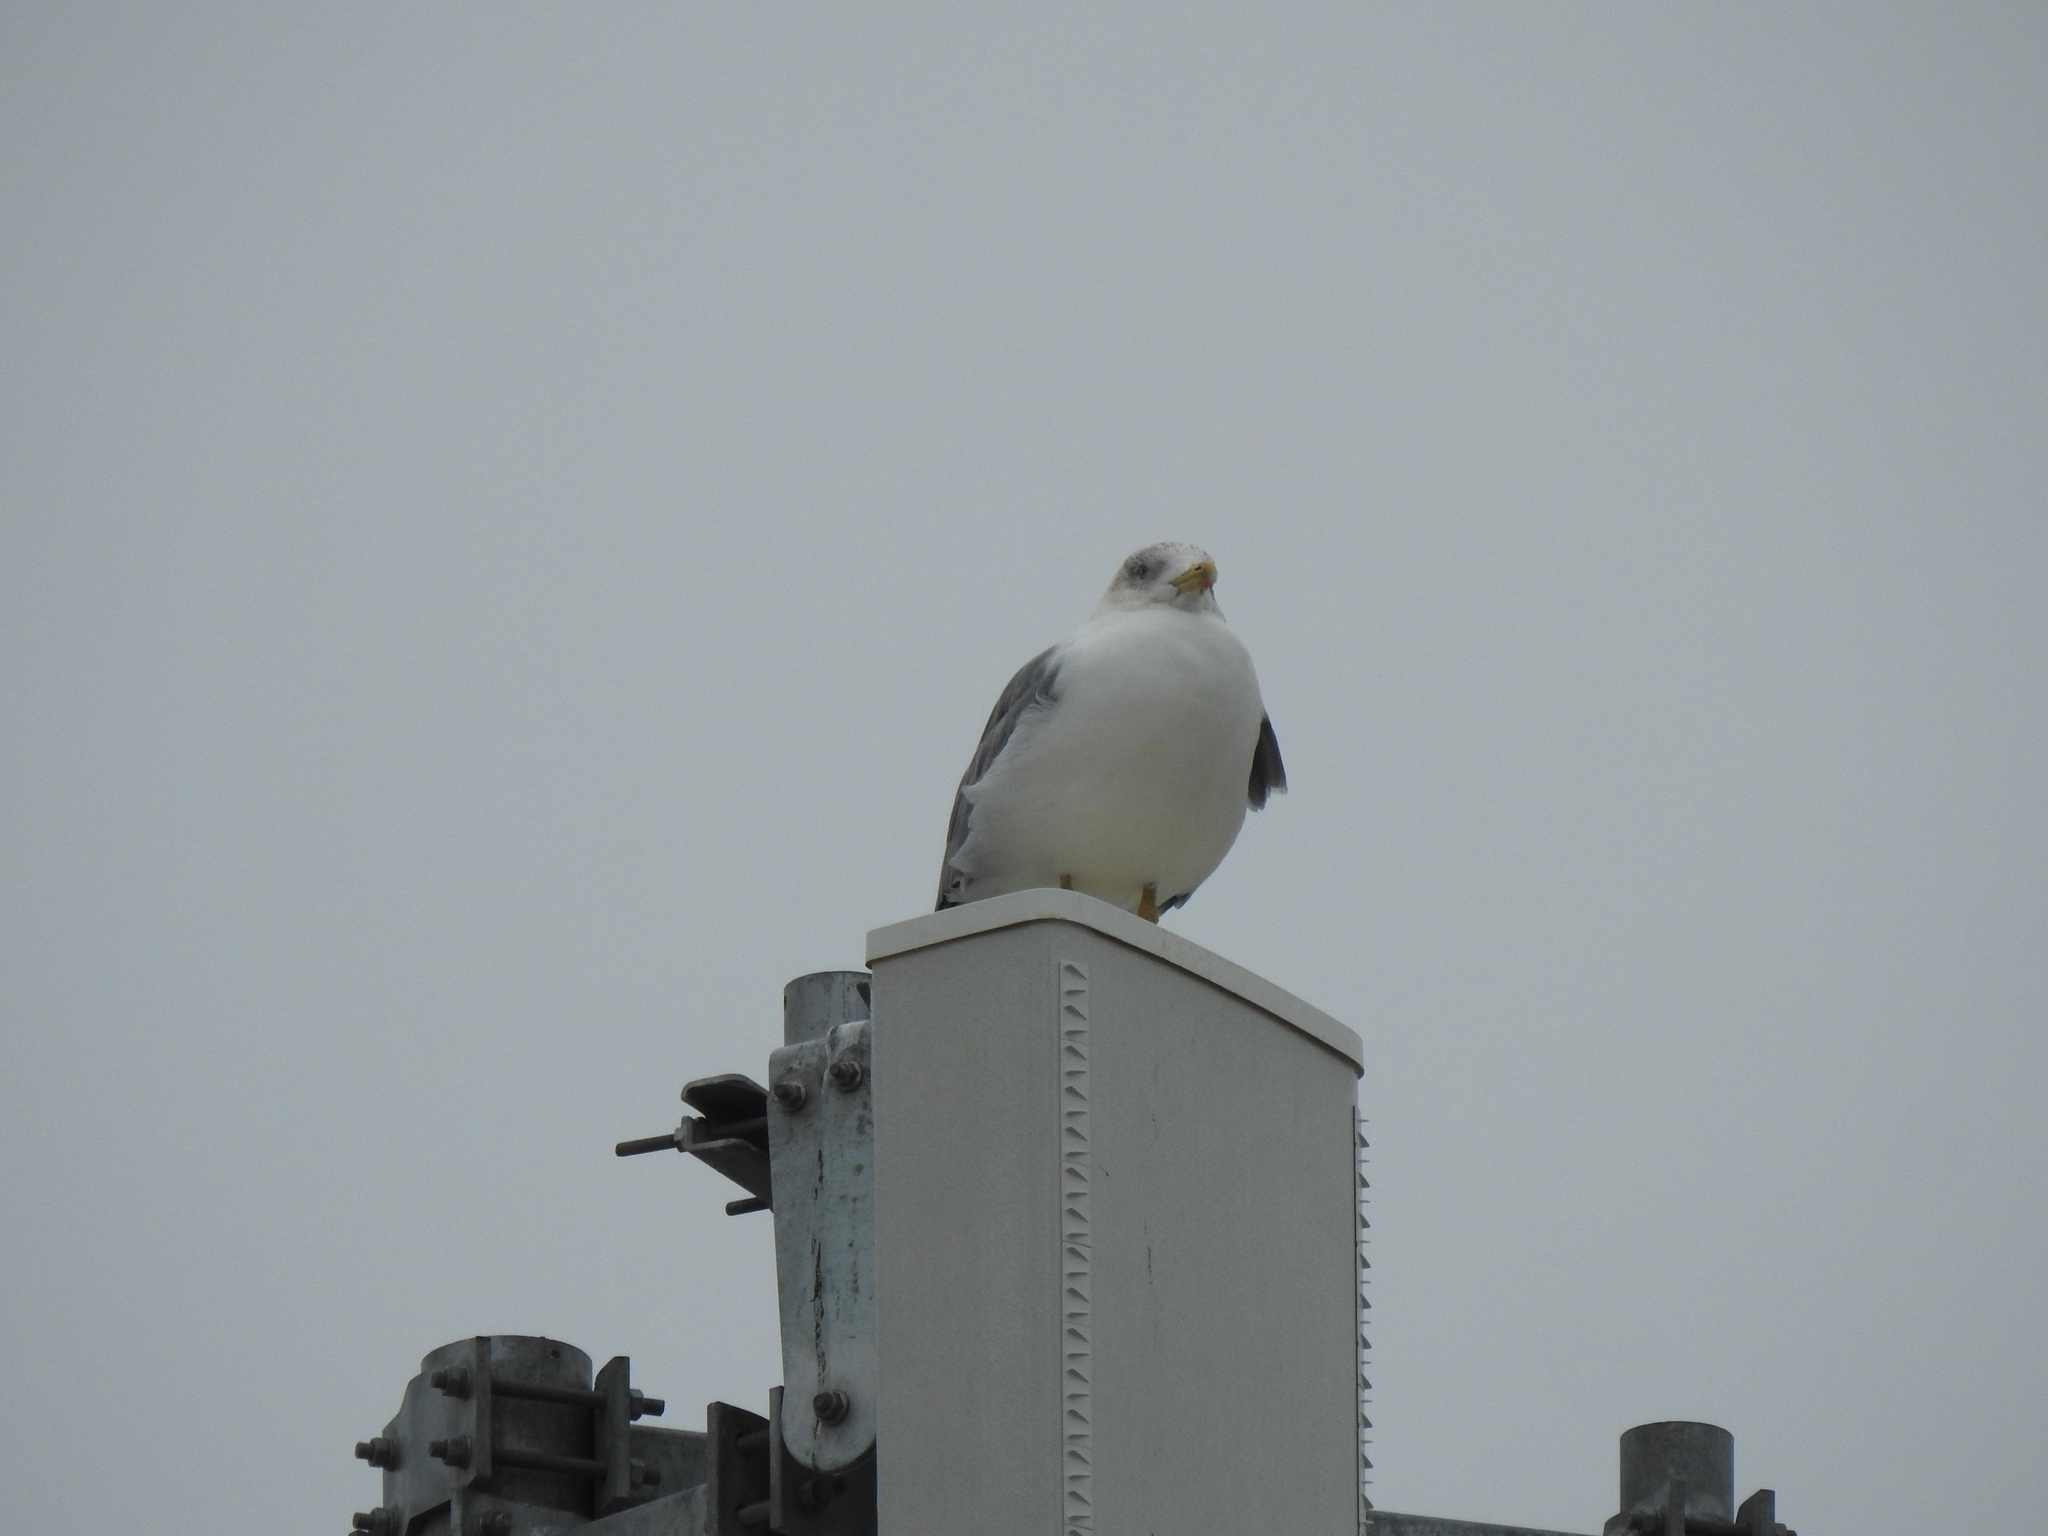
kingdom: Animalia
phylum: Chordata
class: Aves
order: Charadriiformes
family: Laridae
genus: Larus
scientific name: Larus michahellis
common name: Yellow-legged gull
